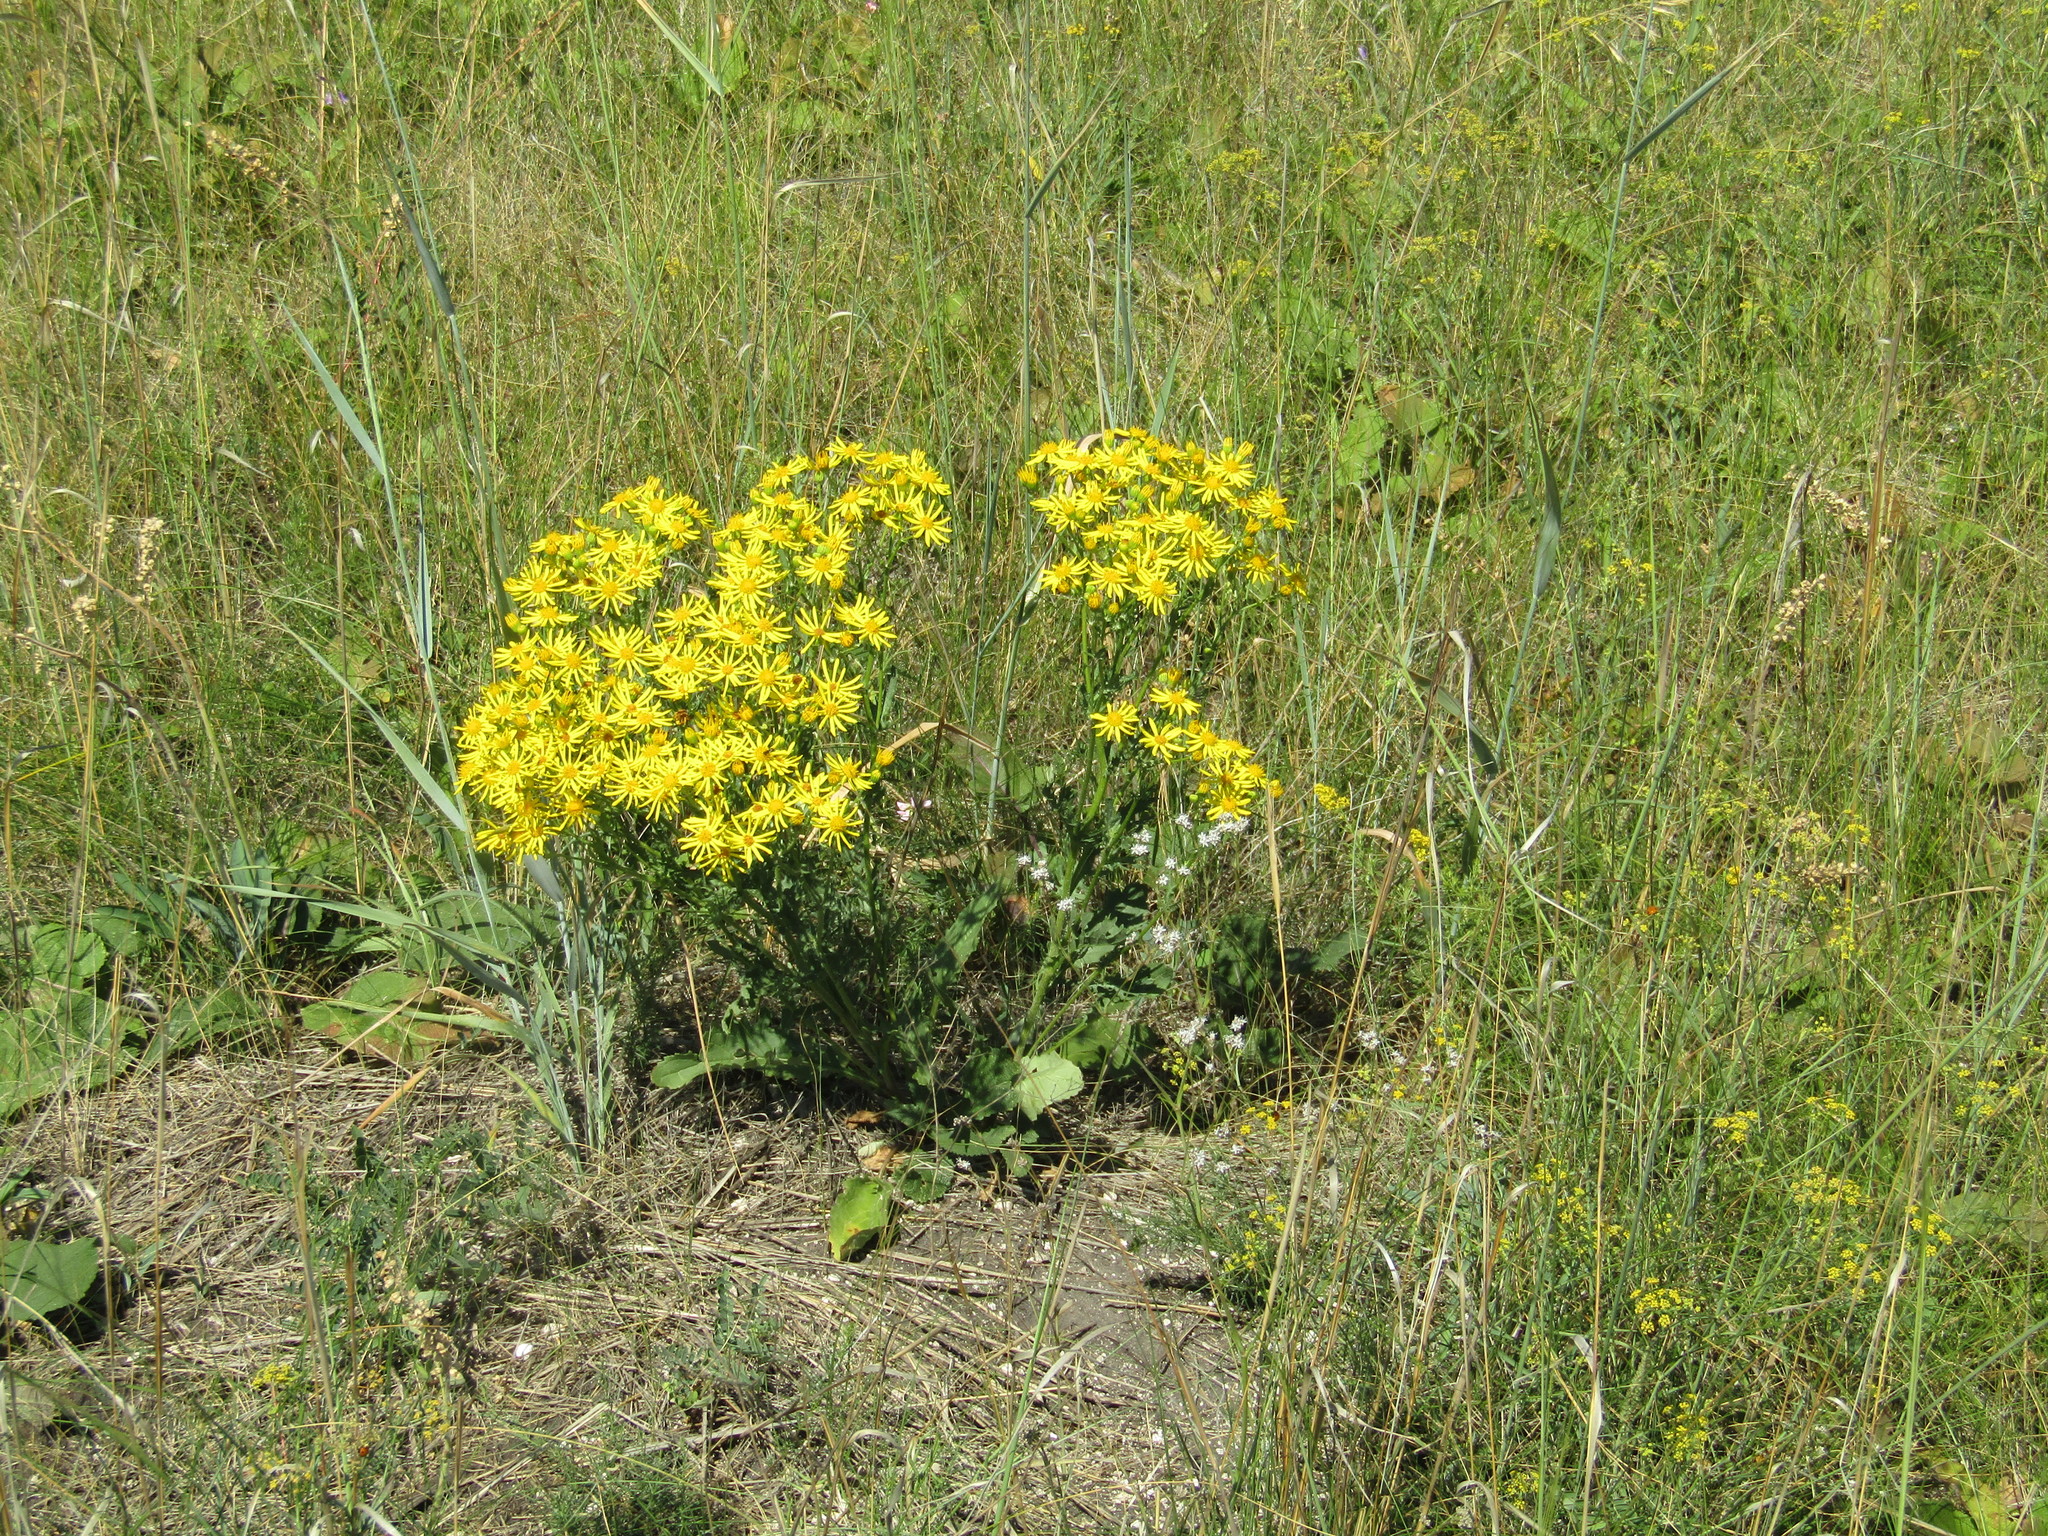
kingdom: Plantae
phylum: Tracheophyta
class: Magnoliopsida
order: Asterales
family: Asteraceae
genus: Jacobaea
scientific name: Jacobaea vulgaris
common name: Stinking willie
